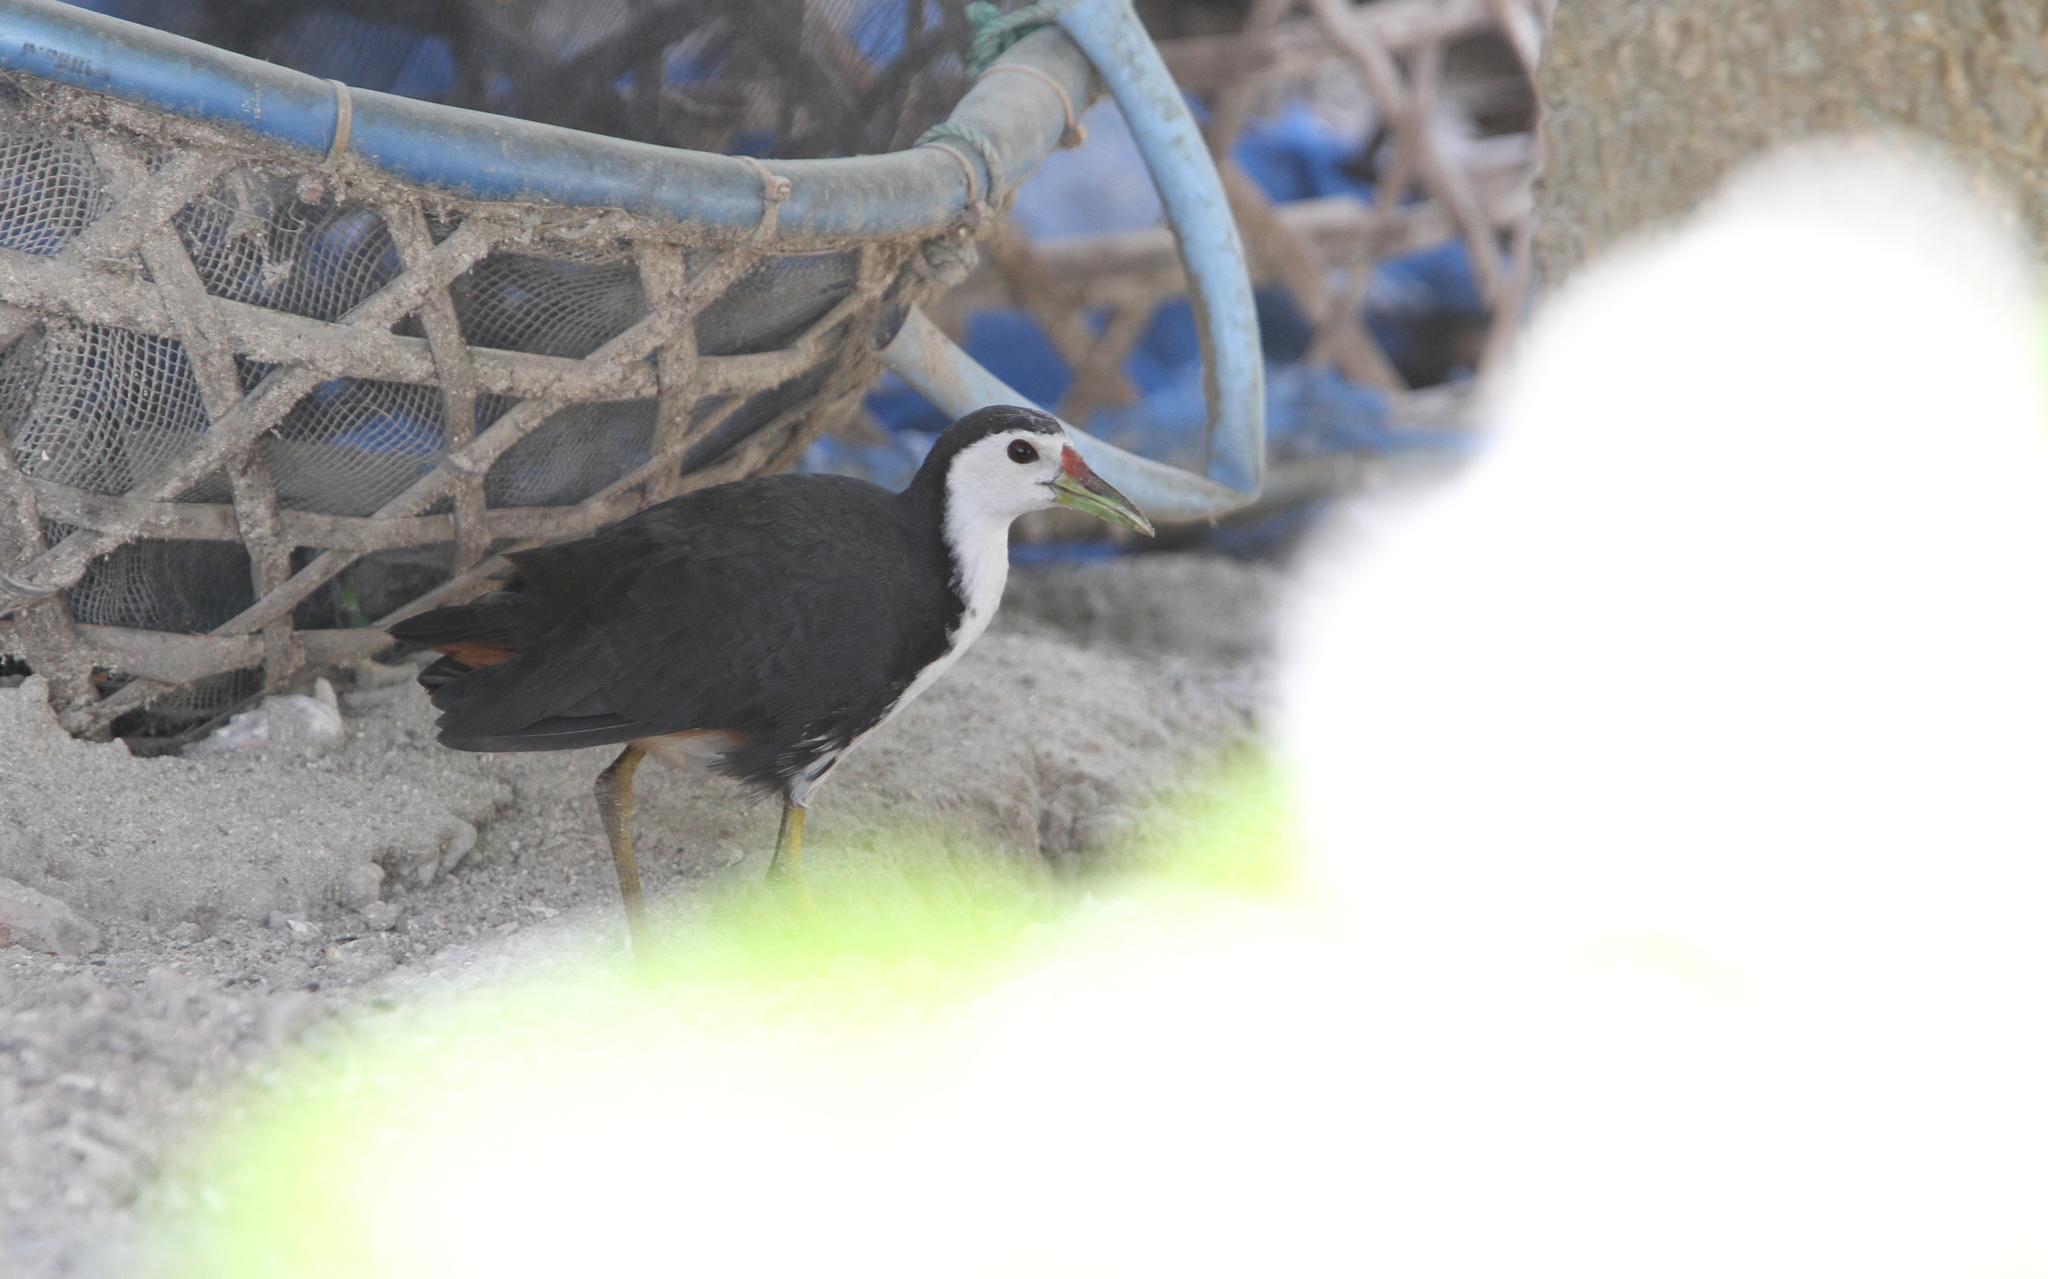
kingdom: Animalia
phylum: Chordata
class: Aves
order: Gruiformes
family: Rallidae
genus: Amaurornis
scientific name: Amaurornis phoenicurus
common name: White-breasted waterhen
